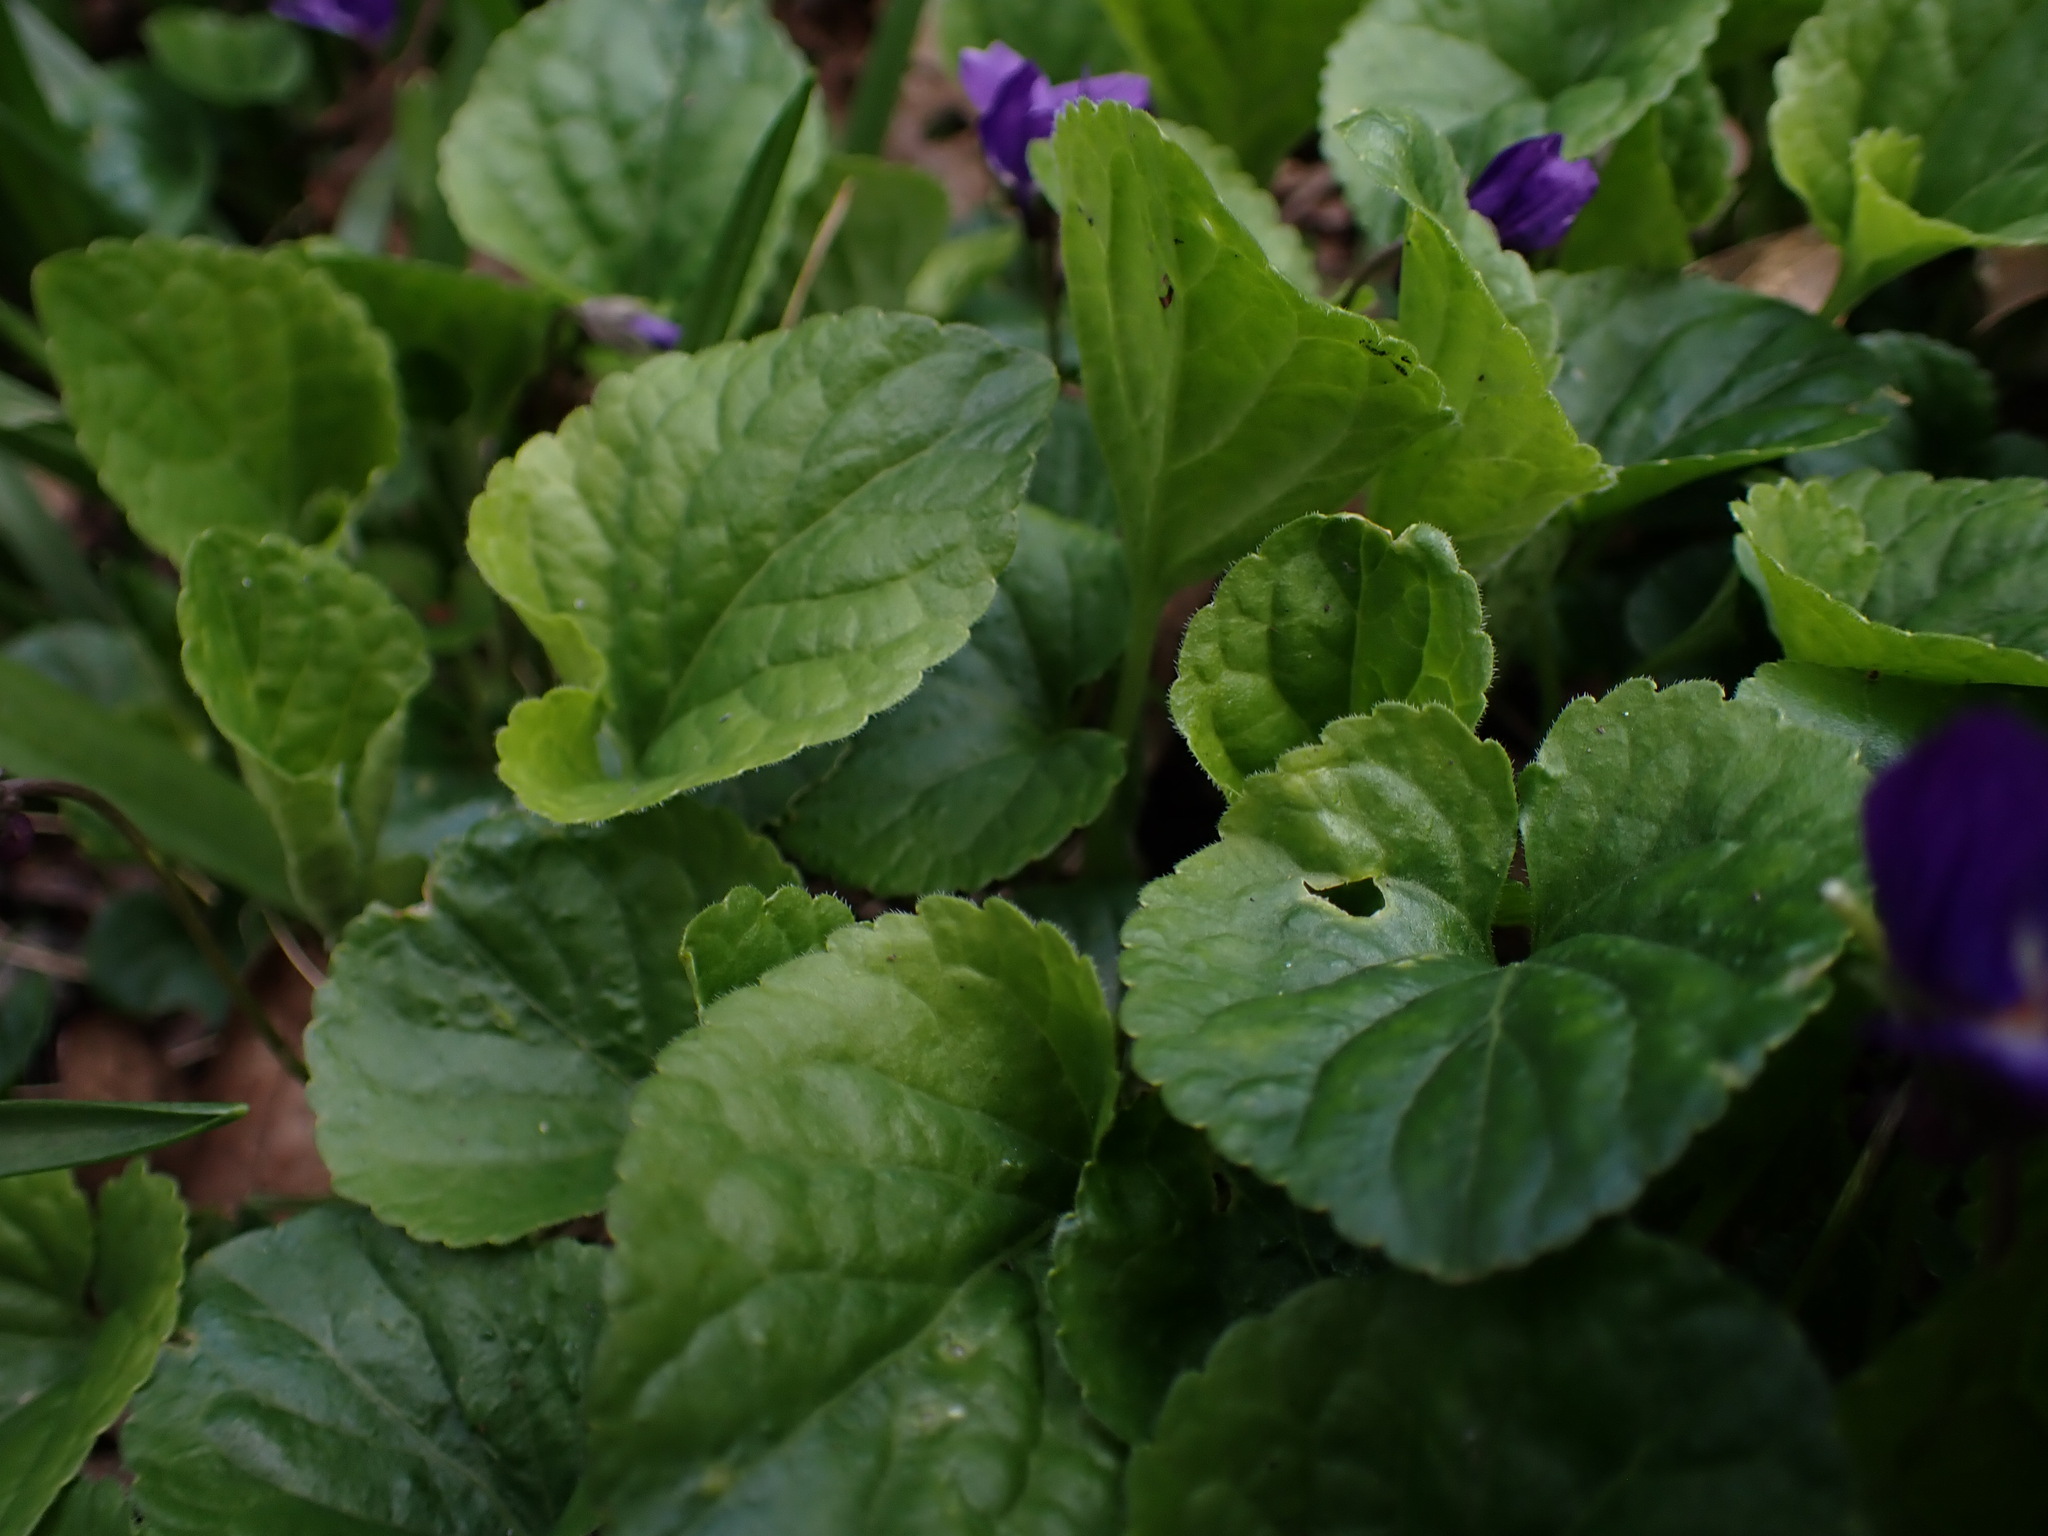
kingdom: Plantae
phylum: Tracheophyta
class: Magnoliopsida
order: Malpighiales
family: Violaceae
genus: Viola
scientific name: Viola odorata
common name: Sweet violet
